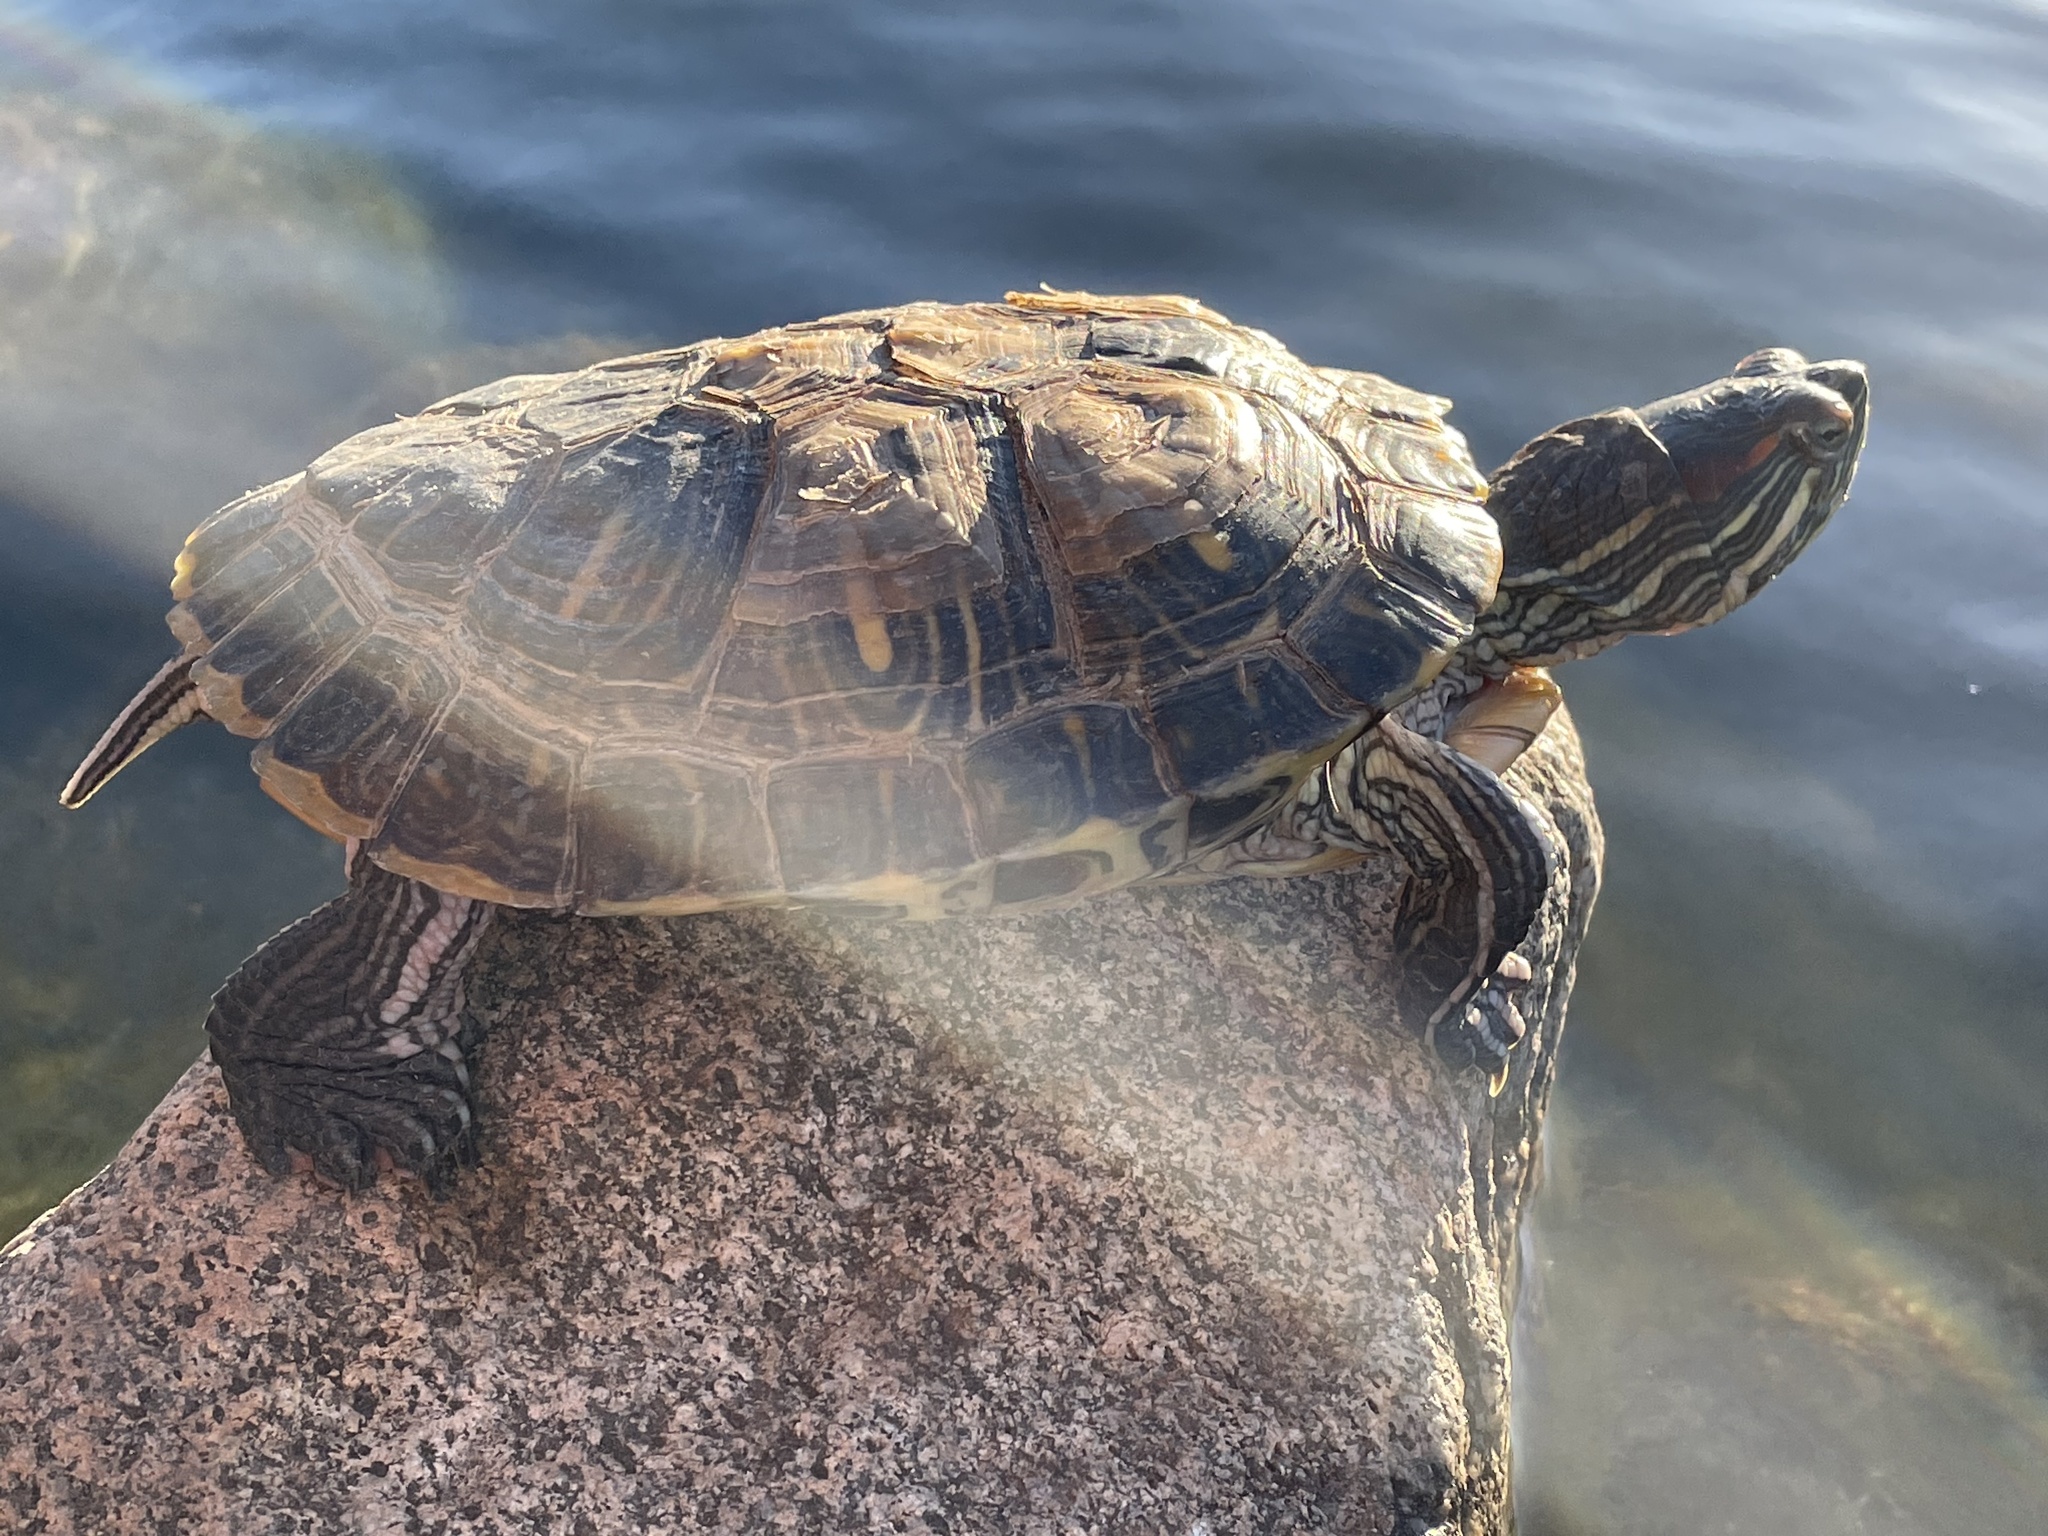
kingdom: Animalia
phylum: Chordata
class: Testudines
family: Emydidae
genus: Trachemys
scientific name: Trachemys scripta
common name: Slider
